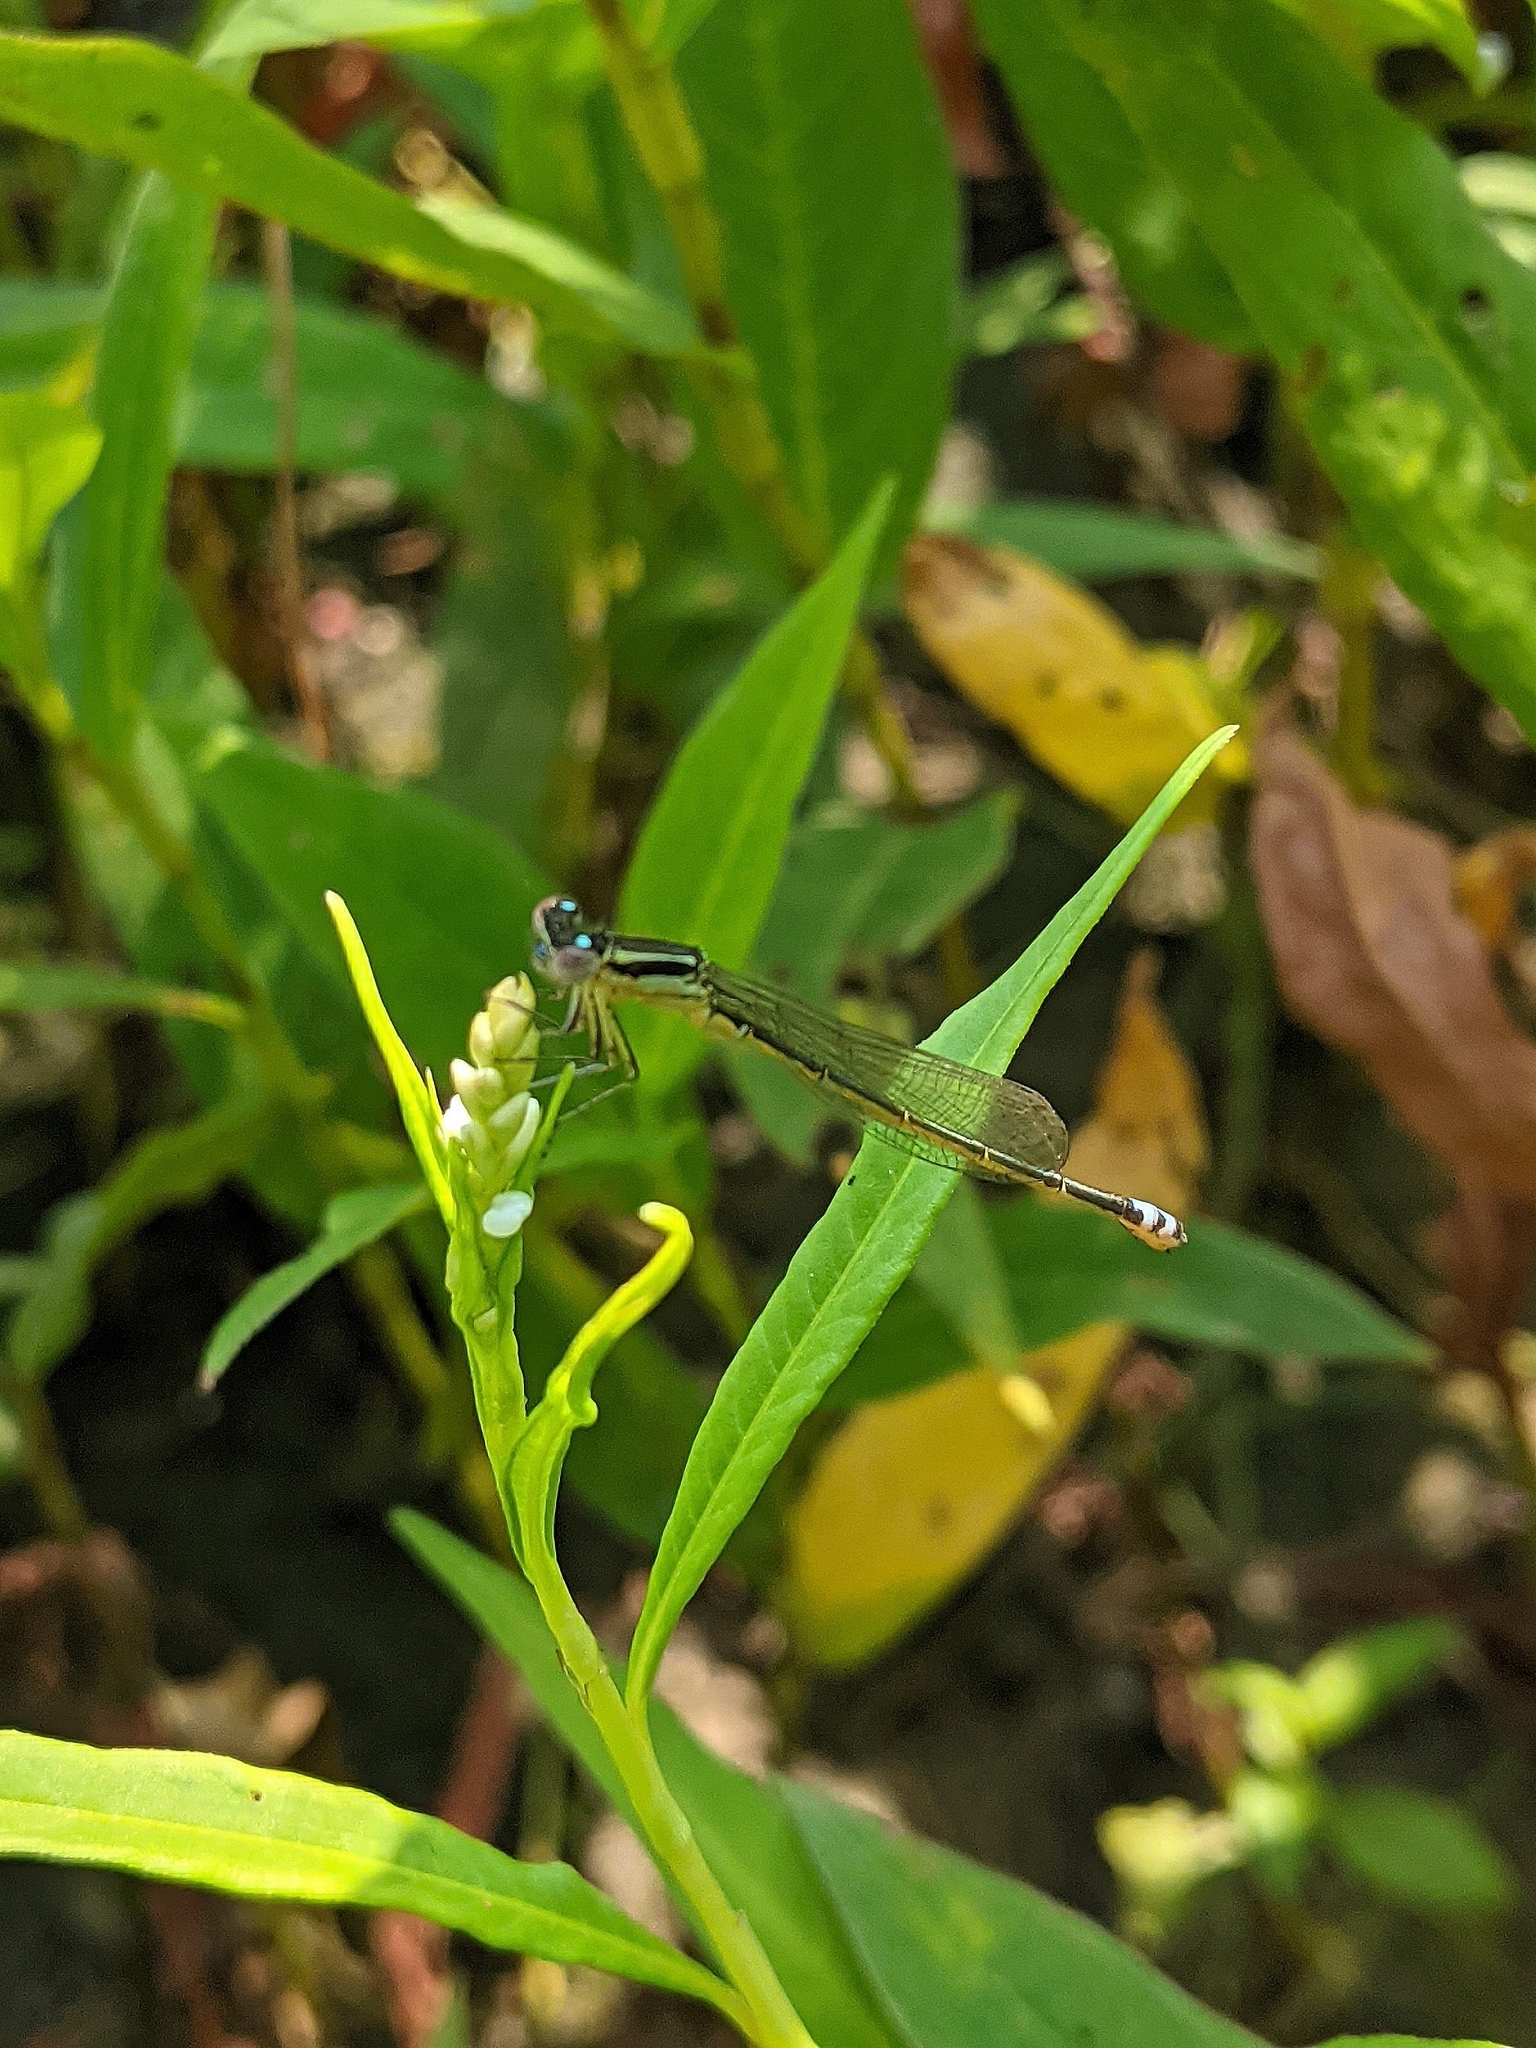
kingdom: Animalia
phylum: Arthropoda
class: Insecta
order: Odonata
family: Coenagrionidae
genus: Ischnura
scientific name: Ischnura verticalis
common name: Eastern forktail
